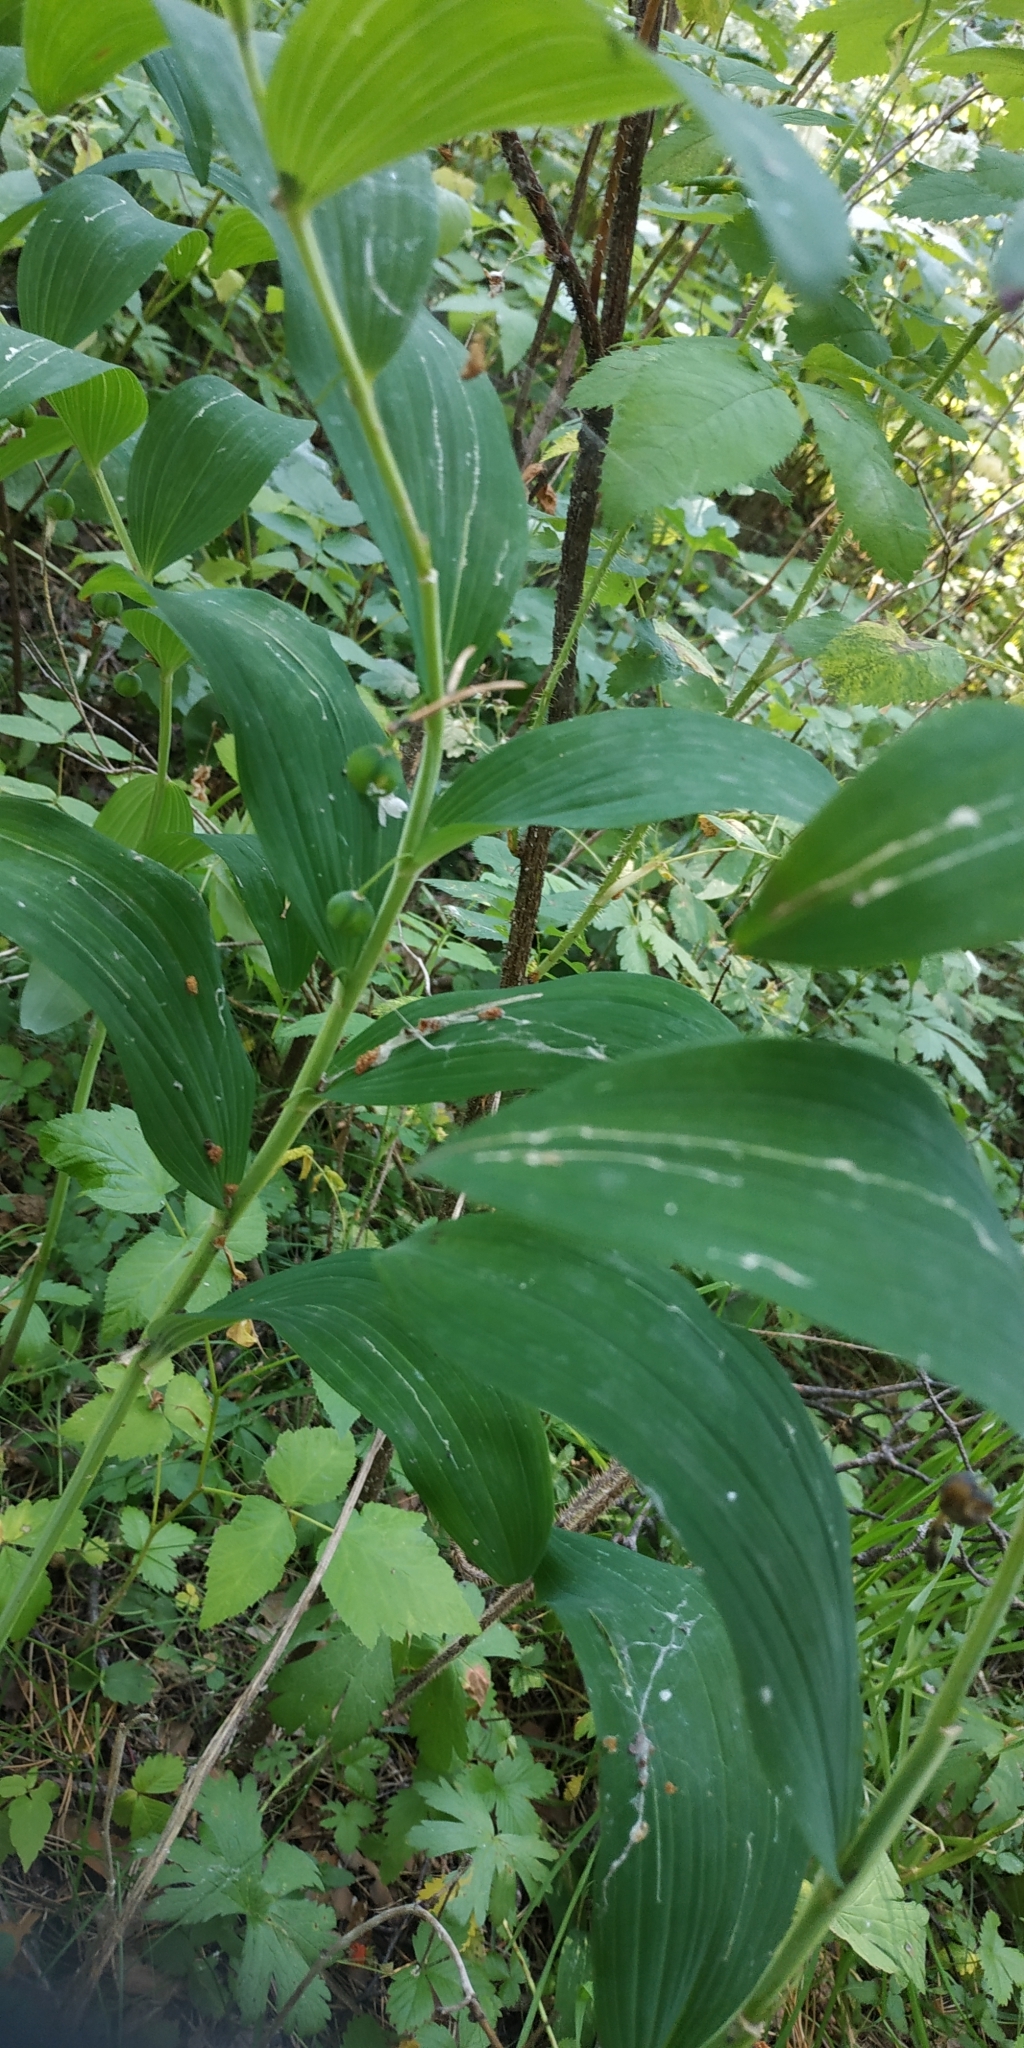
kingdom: Plantae
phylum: Tracheophyta
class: Liliopsida
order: Asparagales
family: Asparagaceae
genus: Polygonatum
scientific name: Polygonatum odoratum
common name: Angular solomon's-seal
